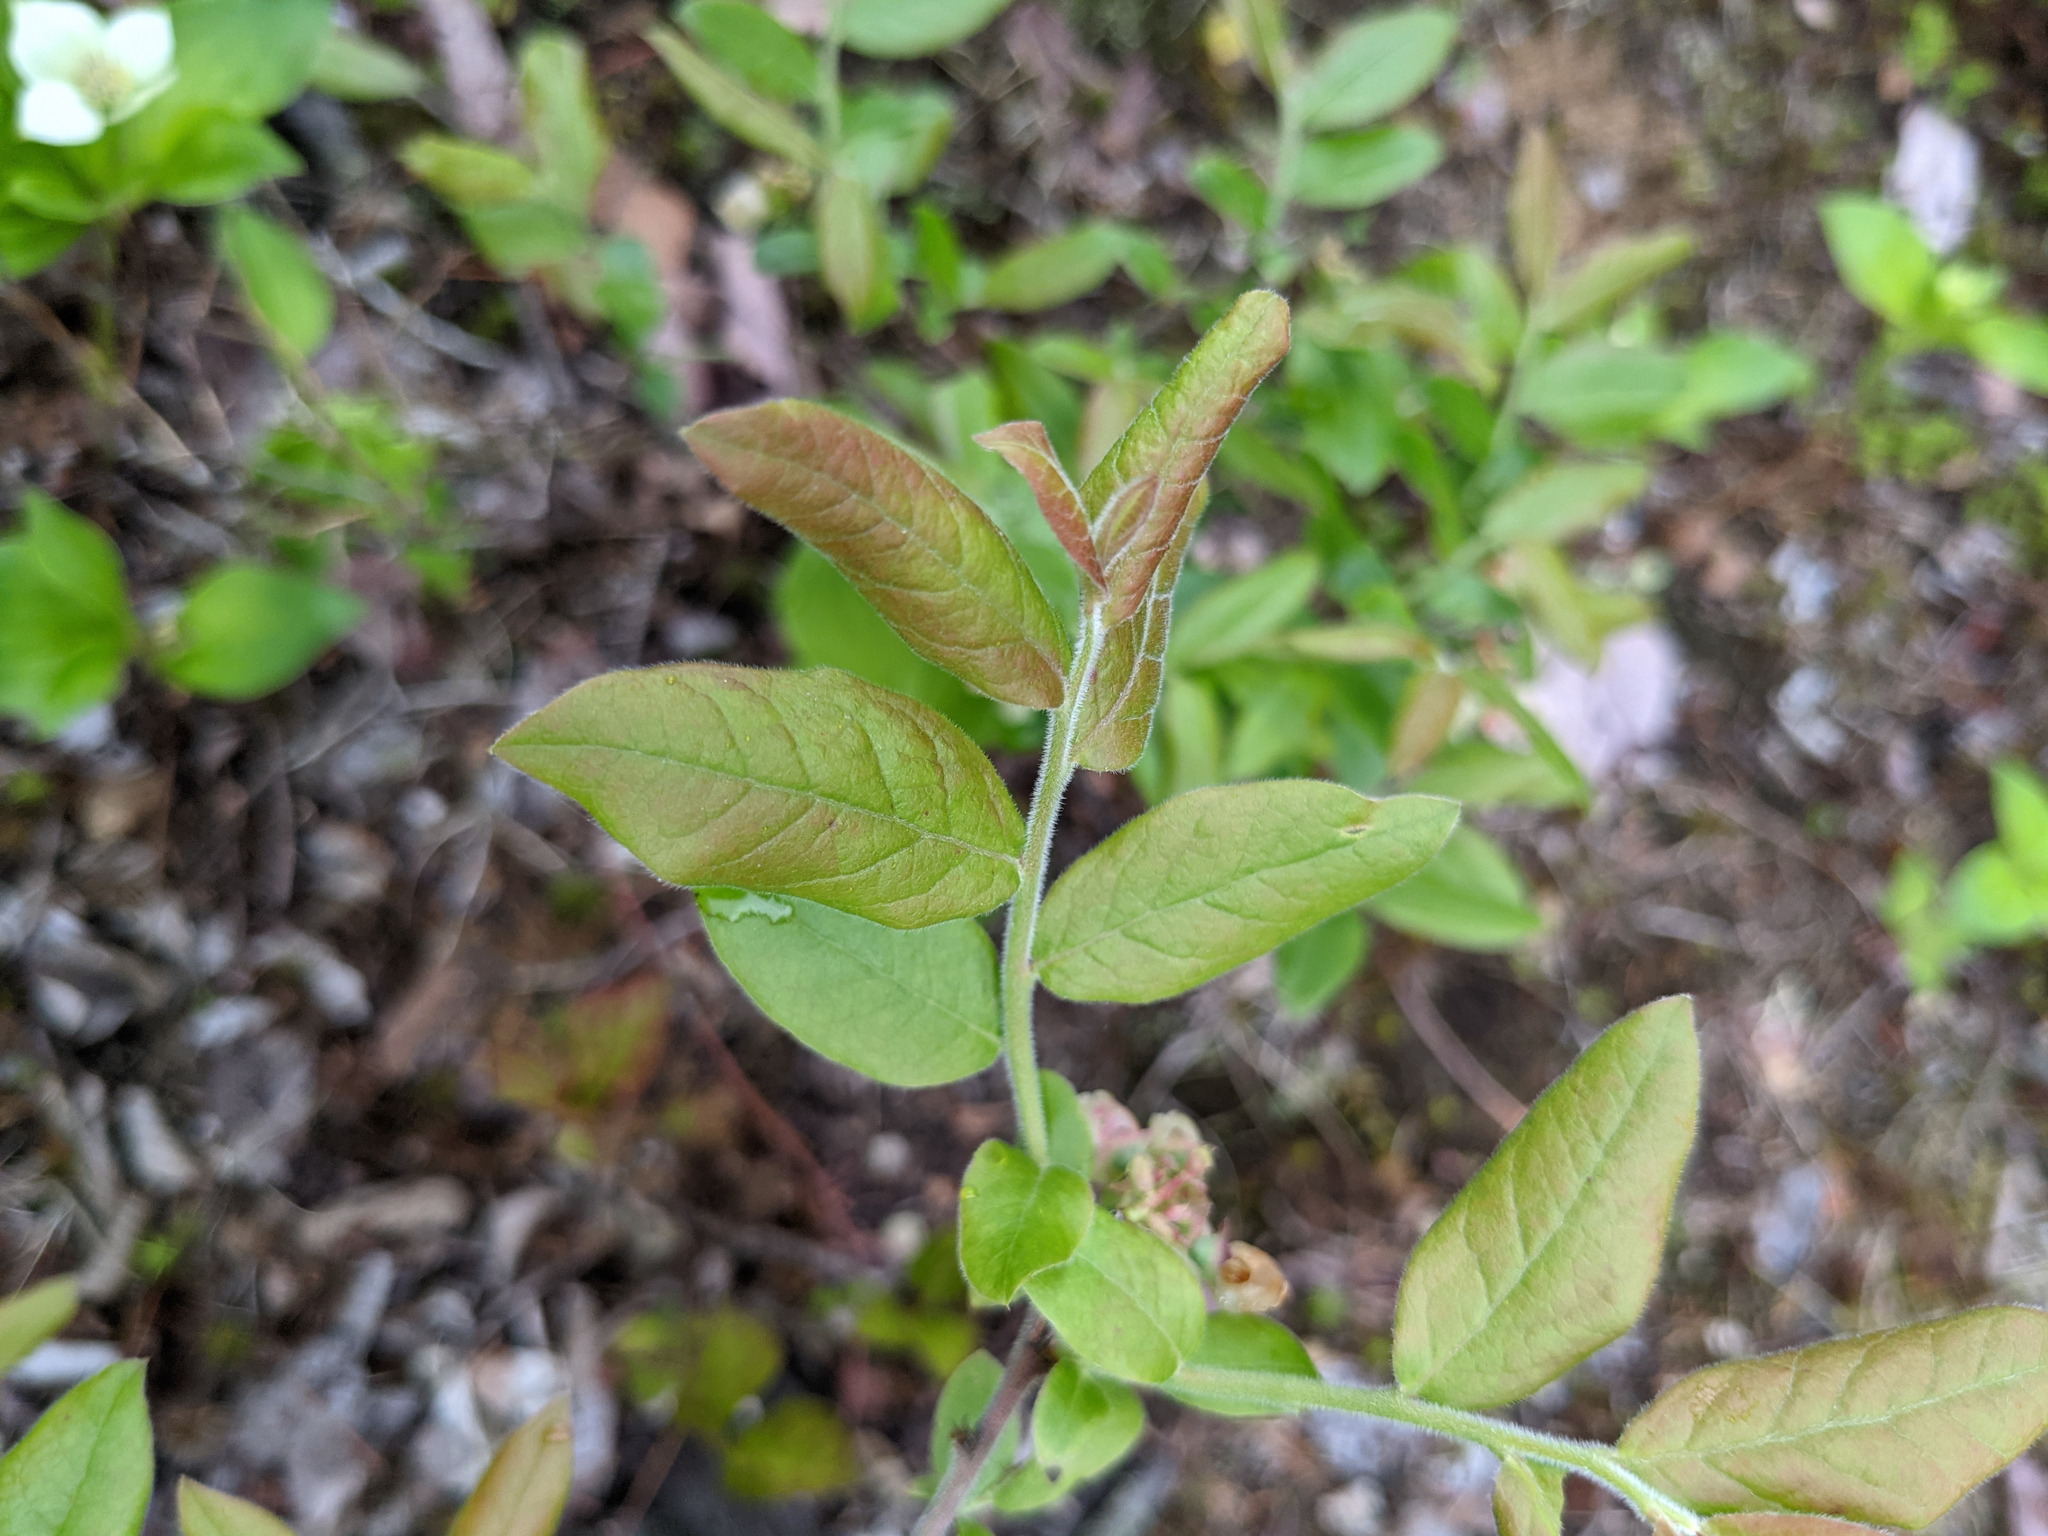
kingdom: Plantae
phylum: Tracheophyta
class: Magnoliopsida
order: Ericales
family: Ericaceae
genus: Vaccinium
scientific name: Vaccinium myrtilloides
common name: Canada blueberry
